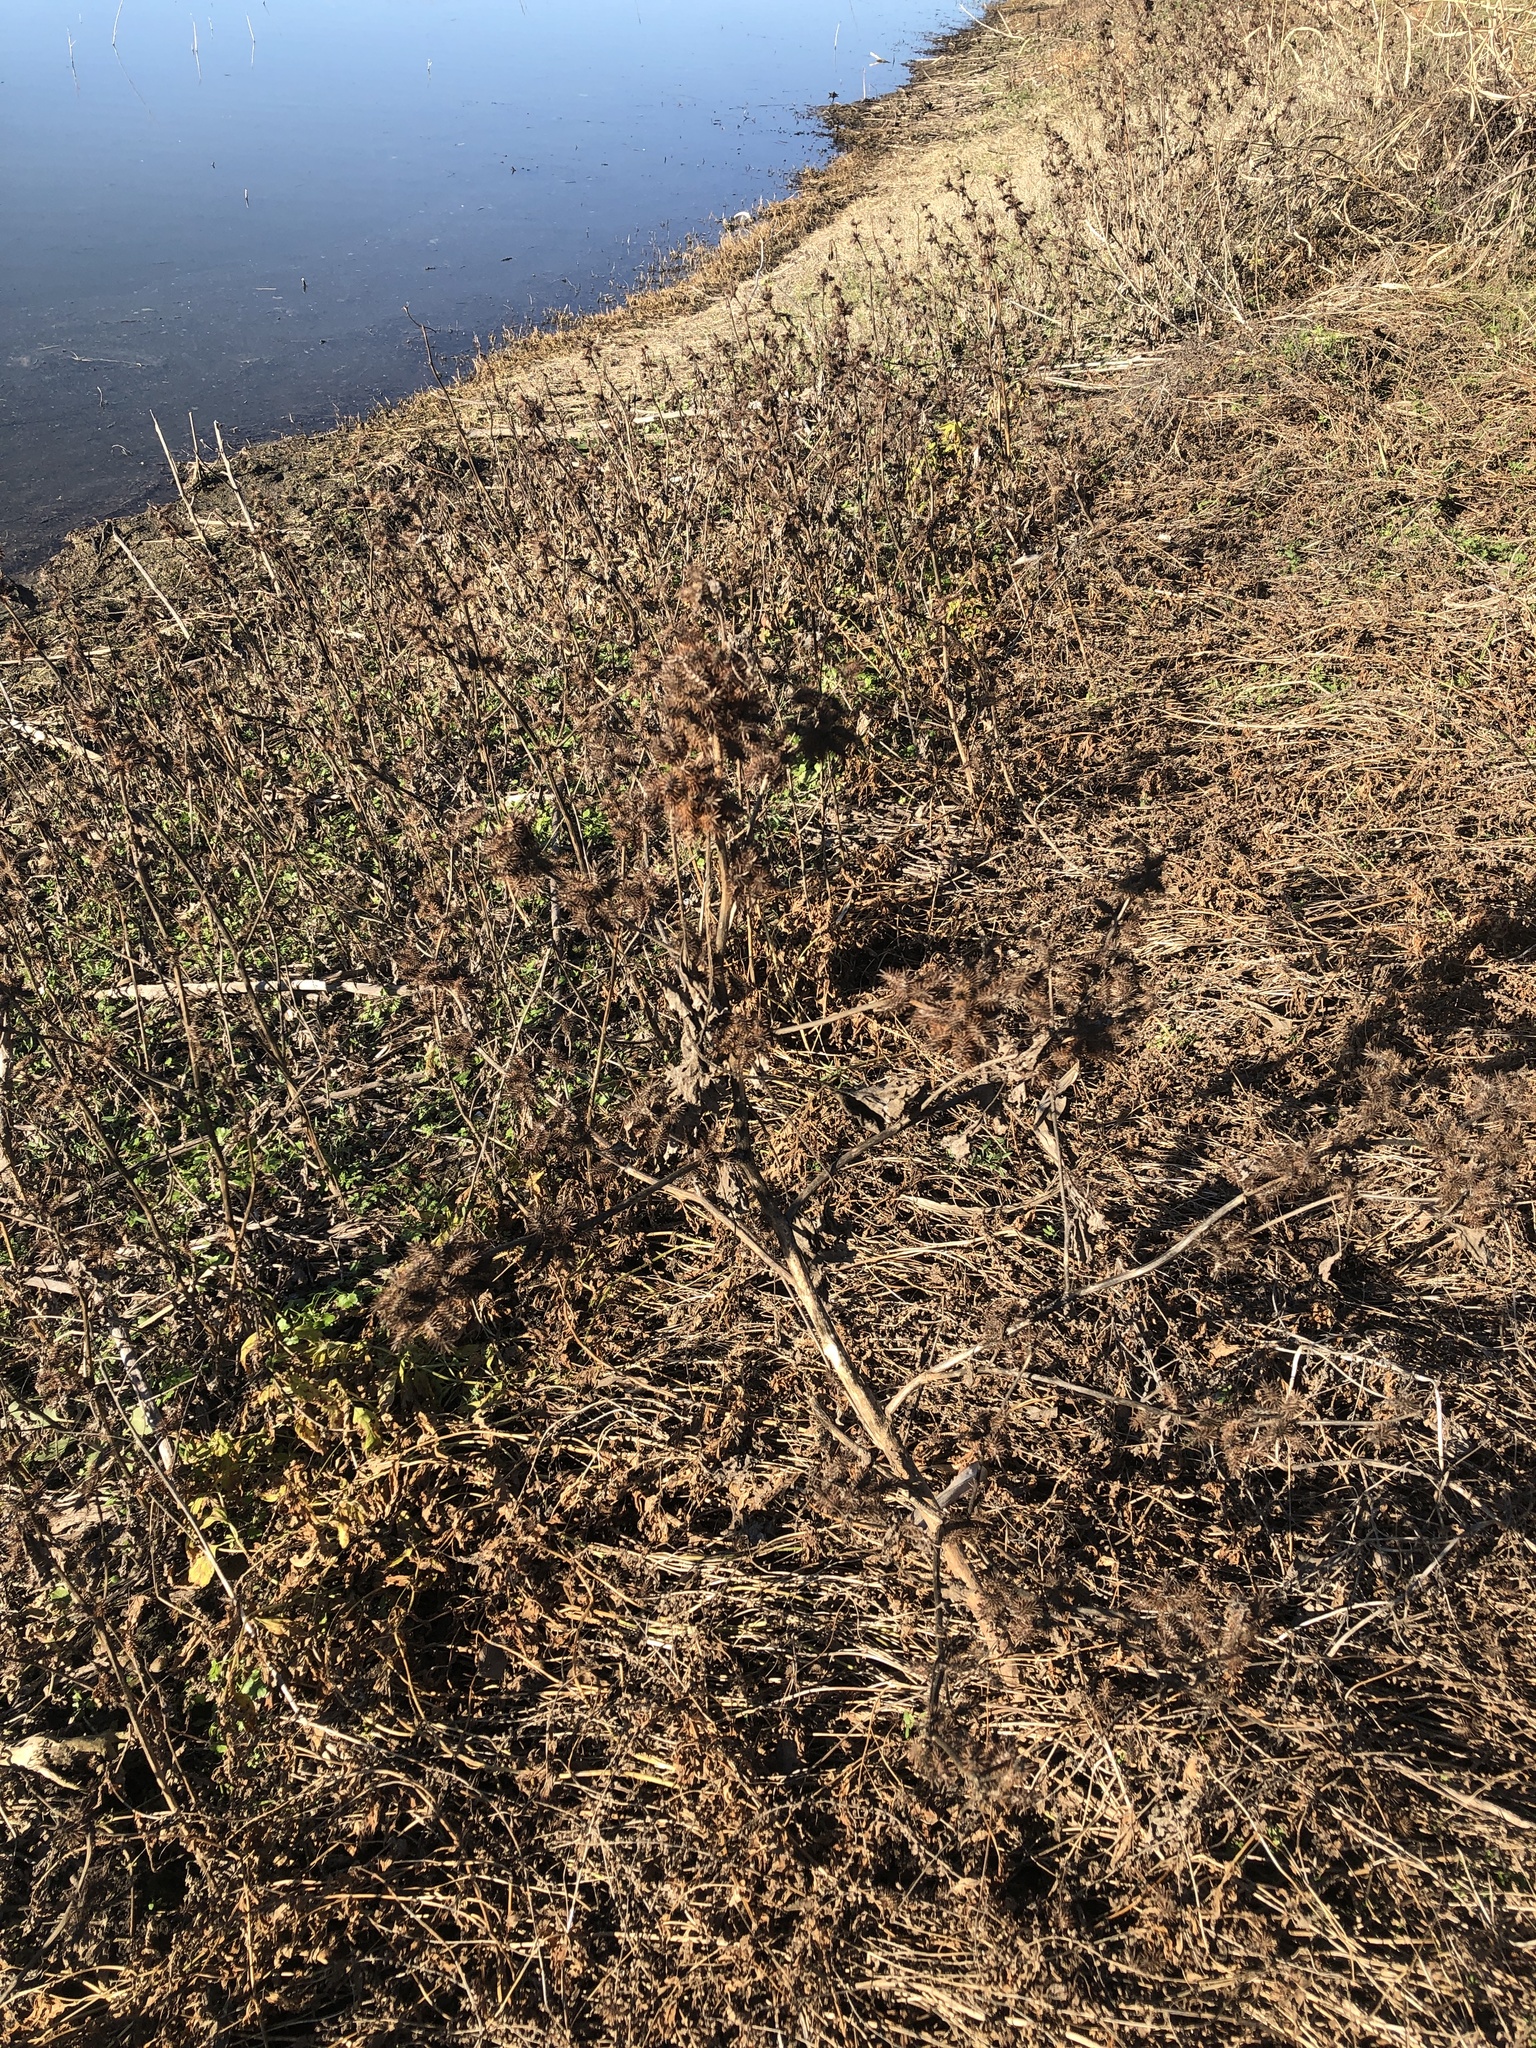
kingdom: Plantae
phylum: Tracheophyta
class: Magnoliopsida
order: Asterales
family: Asteraceae
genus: Xanthium
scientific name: Xanthium strumarium
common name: Rough cocklebur
